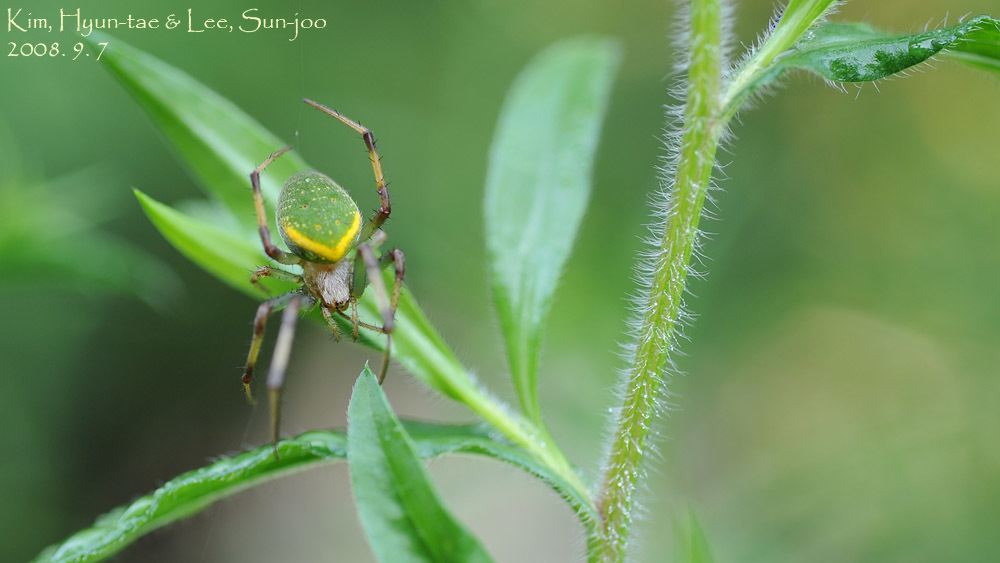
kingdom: Animalia
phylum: Arthropoda
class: Arachnida
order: Araneae
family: Araneidae
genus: Neoscona
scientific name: Neoscona scylloides
